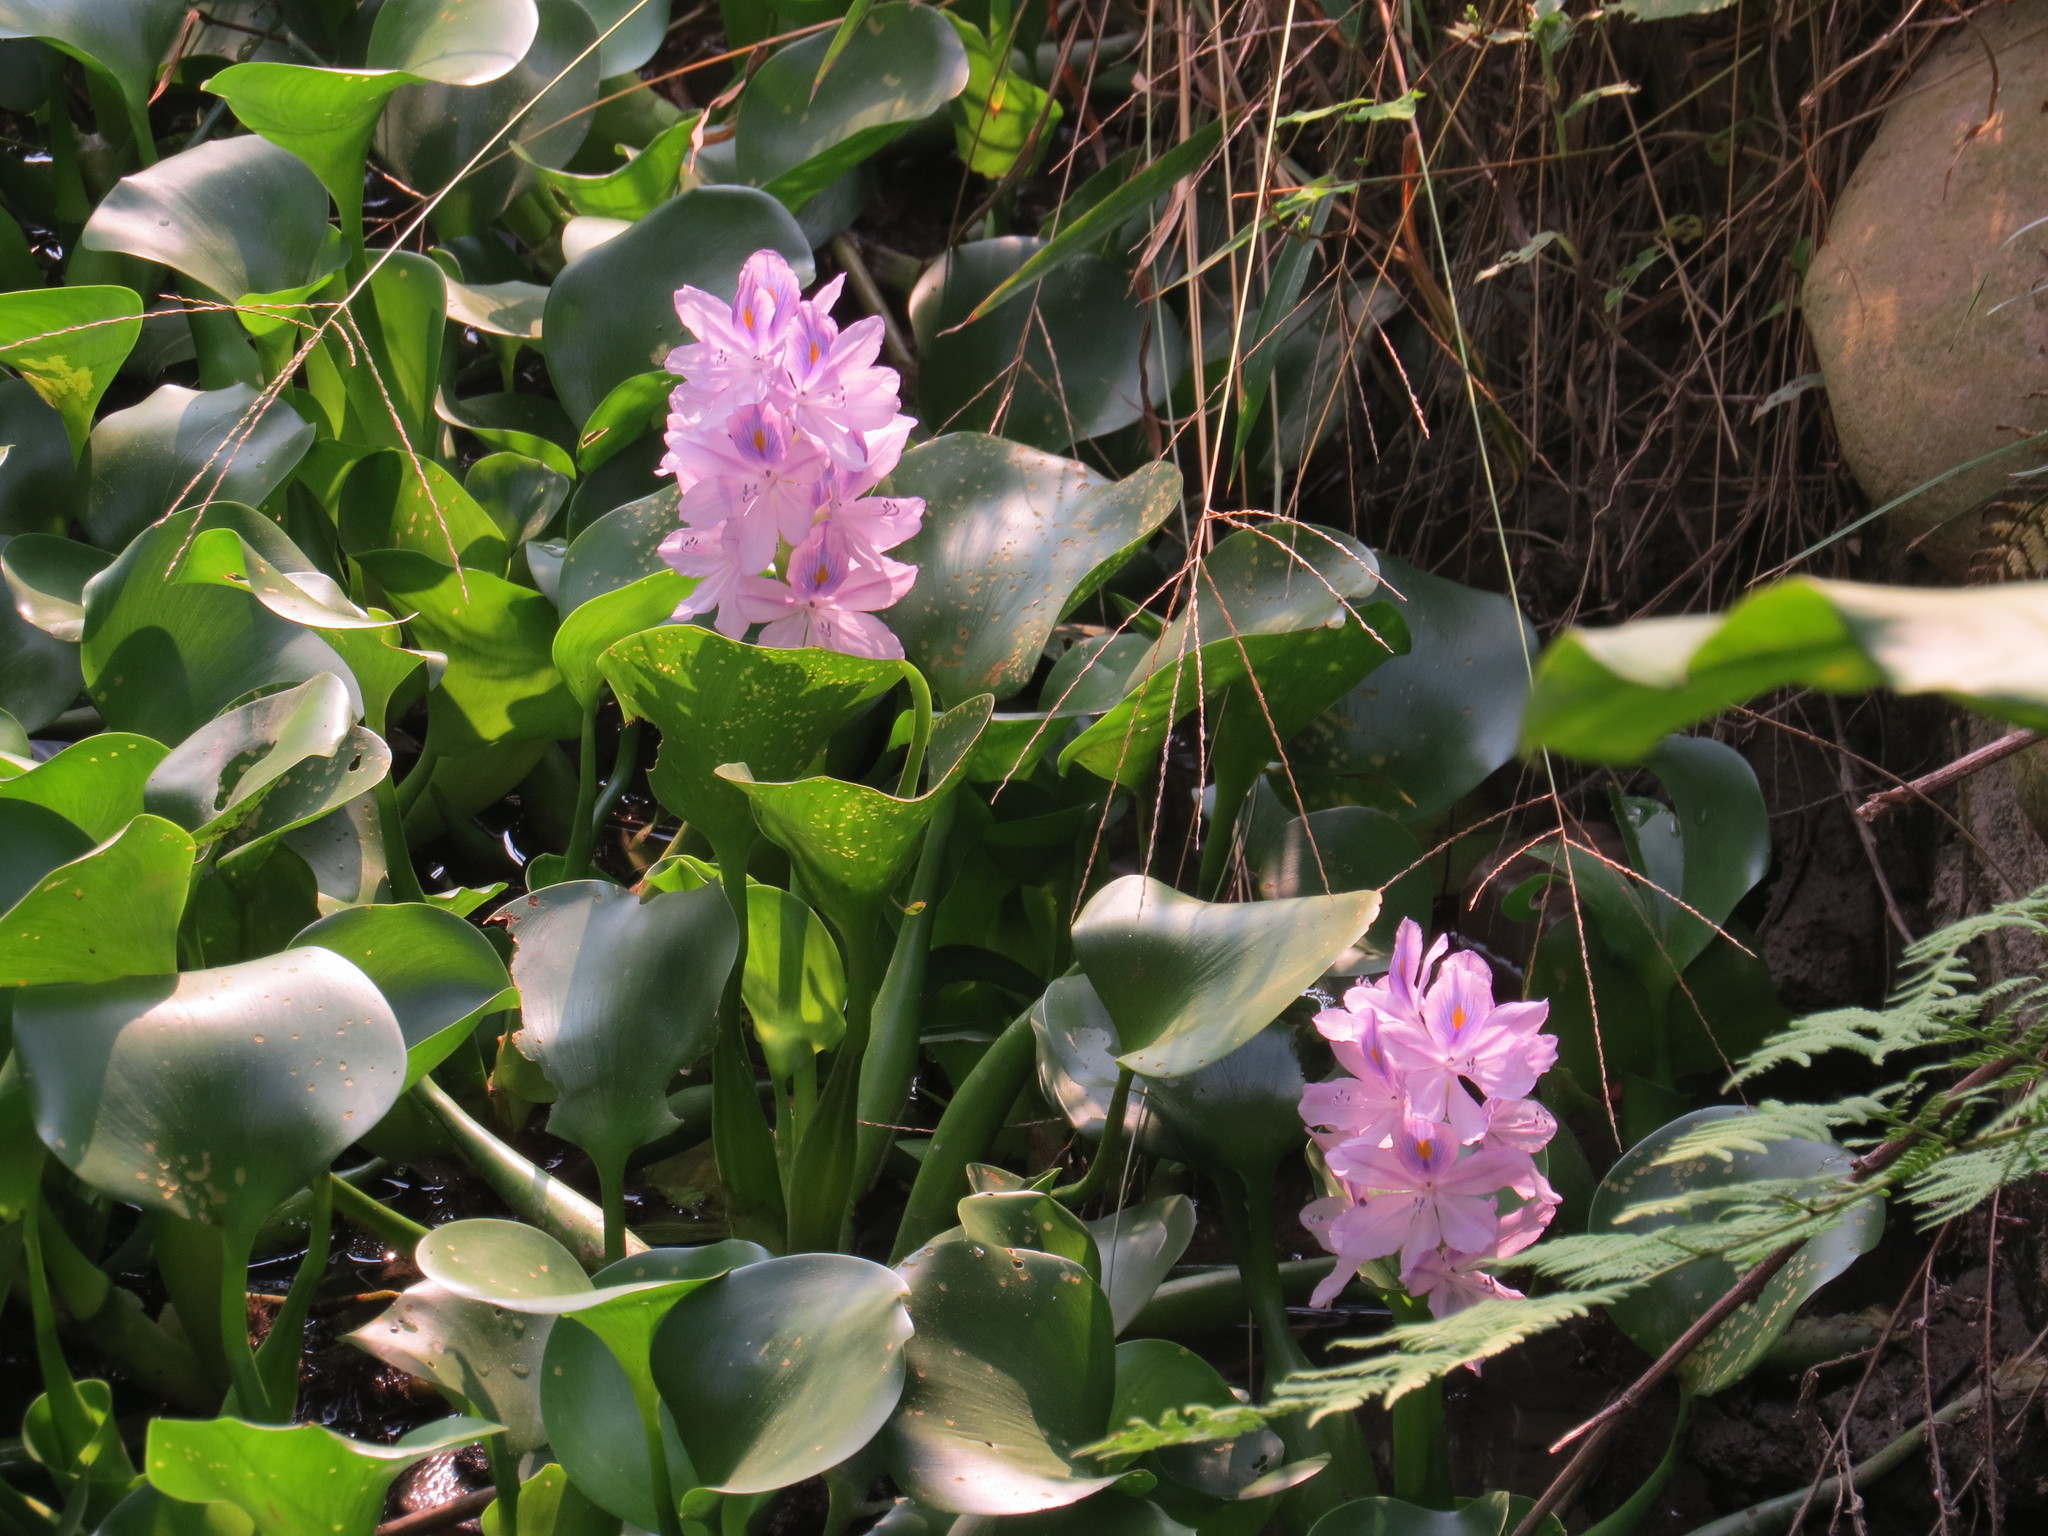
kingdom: Plantae
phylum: Tracheophyta
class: Liliopsida
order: Commelinales
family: Pontederiaceae
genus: Pontederia
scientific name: Pontederia crassipes
